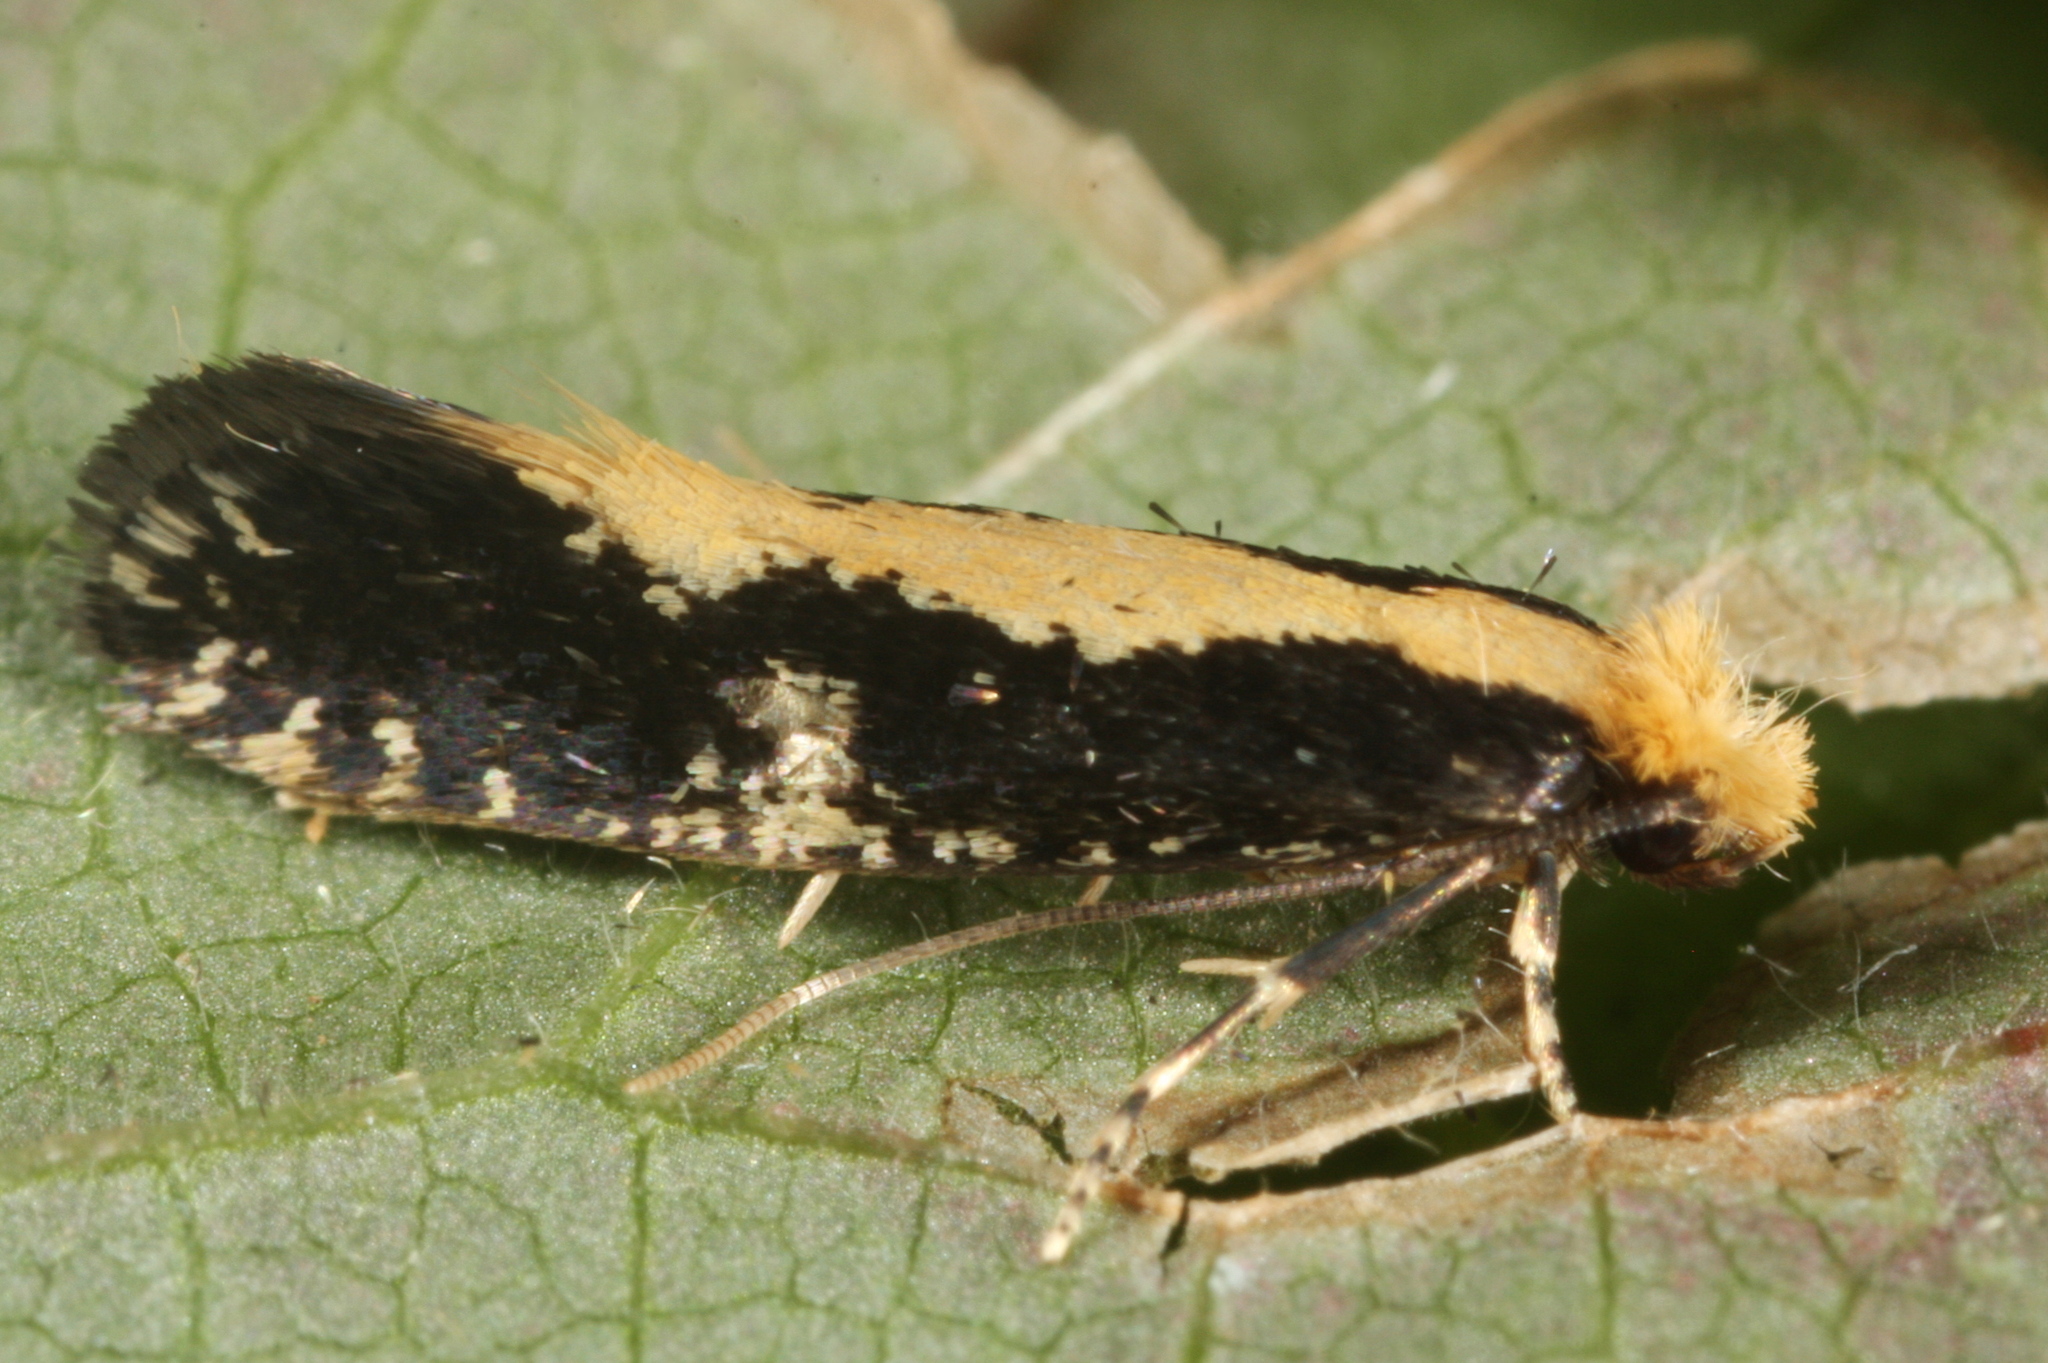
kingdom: Animalia
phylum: Arthropoda
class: Insecta
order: Lepidoptera
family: Tineidae
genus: Monopis
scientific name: Monopis obviella
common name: Tineid moth
